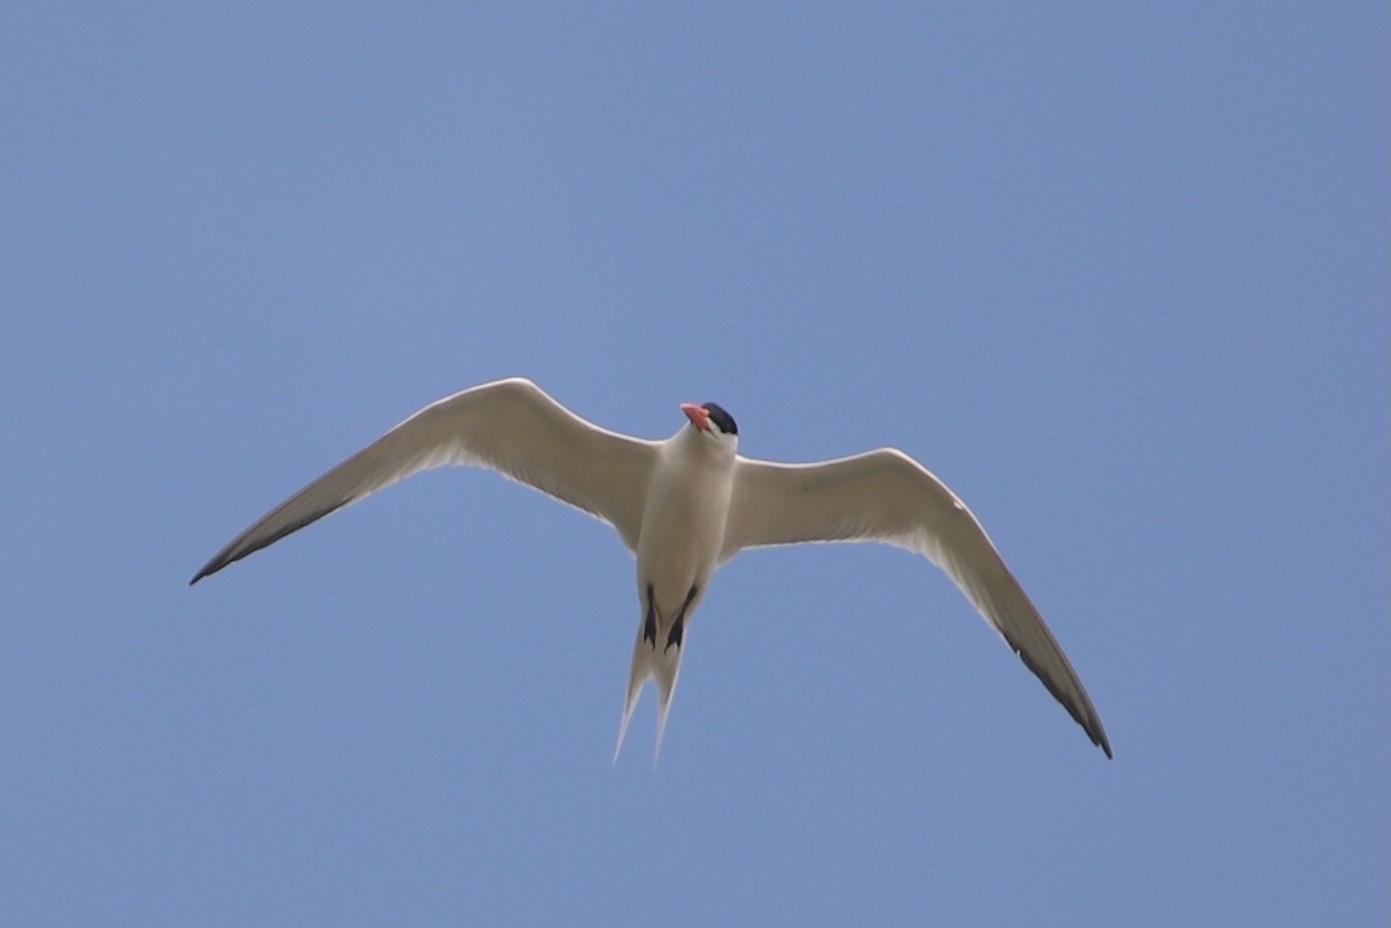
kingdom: Animalia
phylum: Chordata
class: Aves
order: Charadriiformes
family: Laridae
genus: Thalasseus
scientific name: Thalasseus maximus
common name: Royal tern
